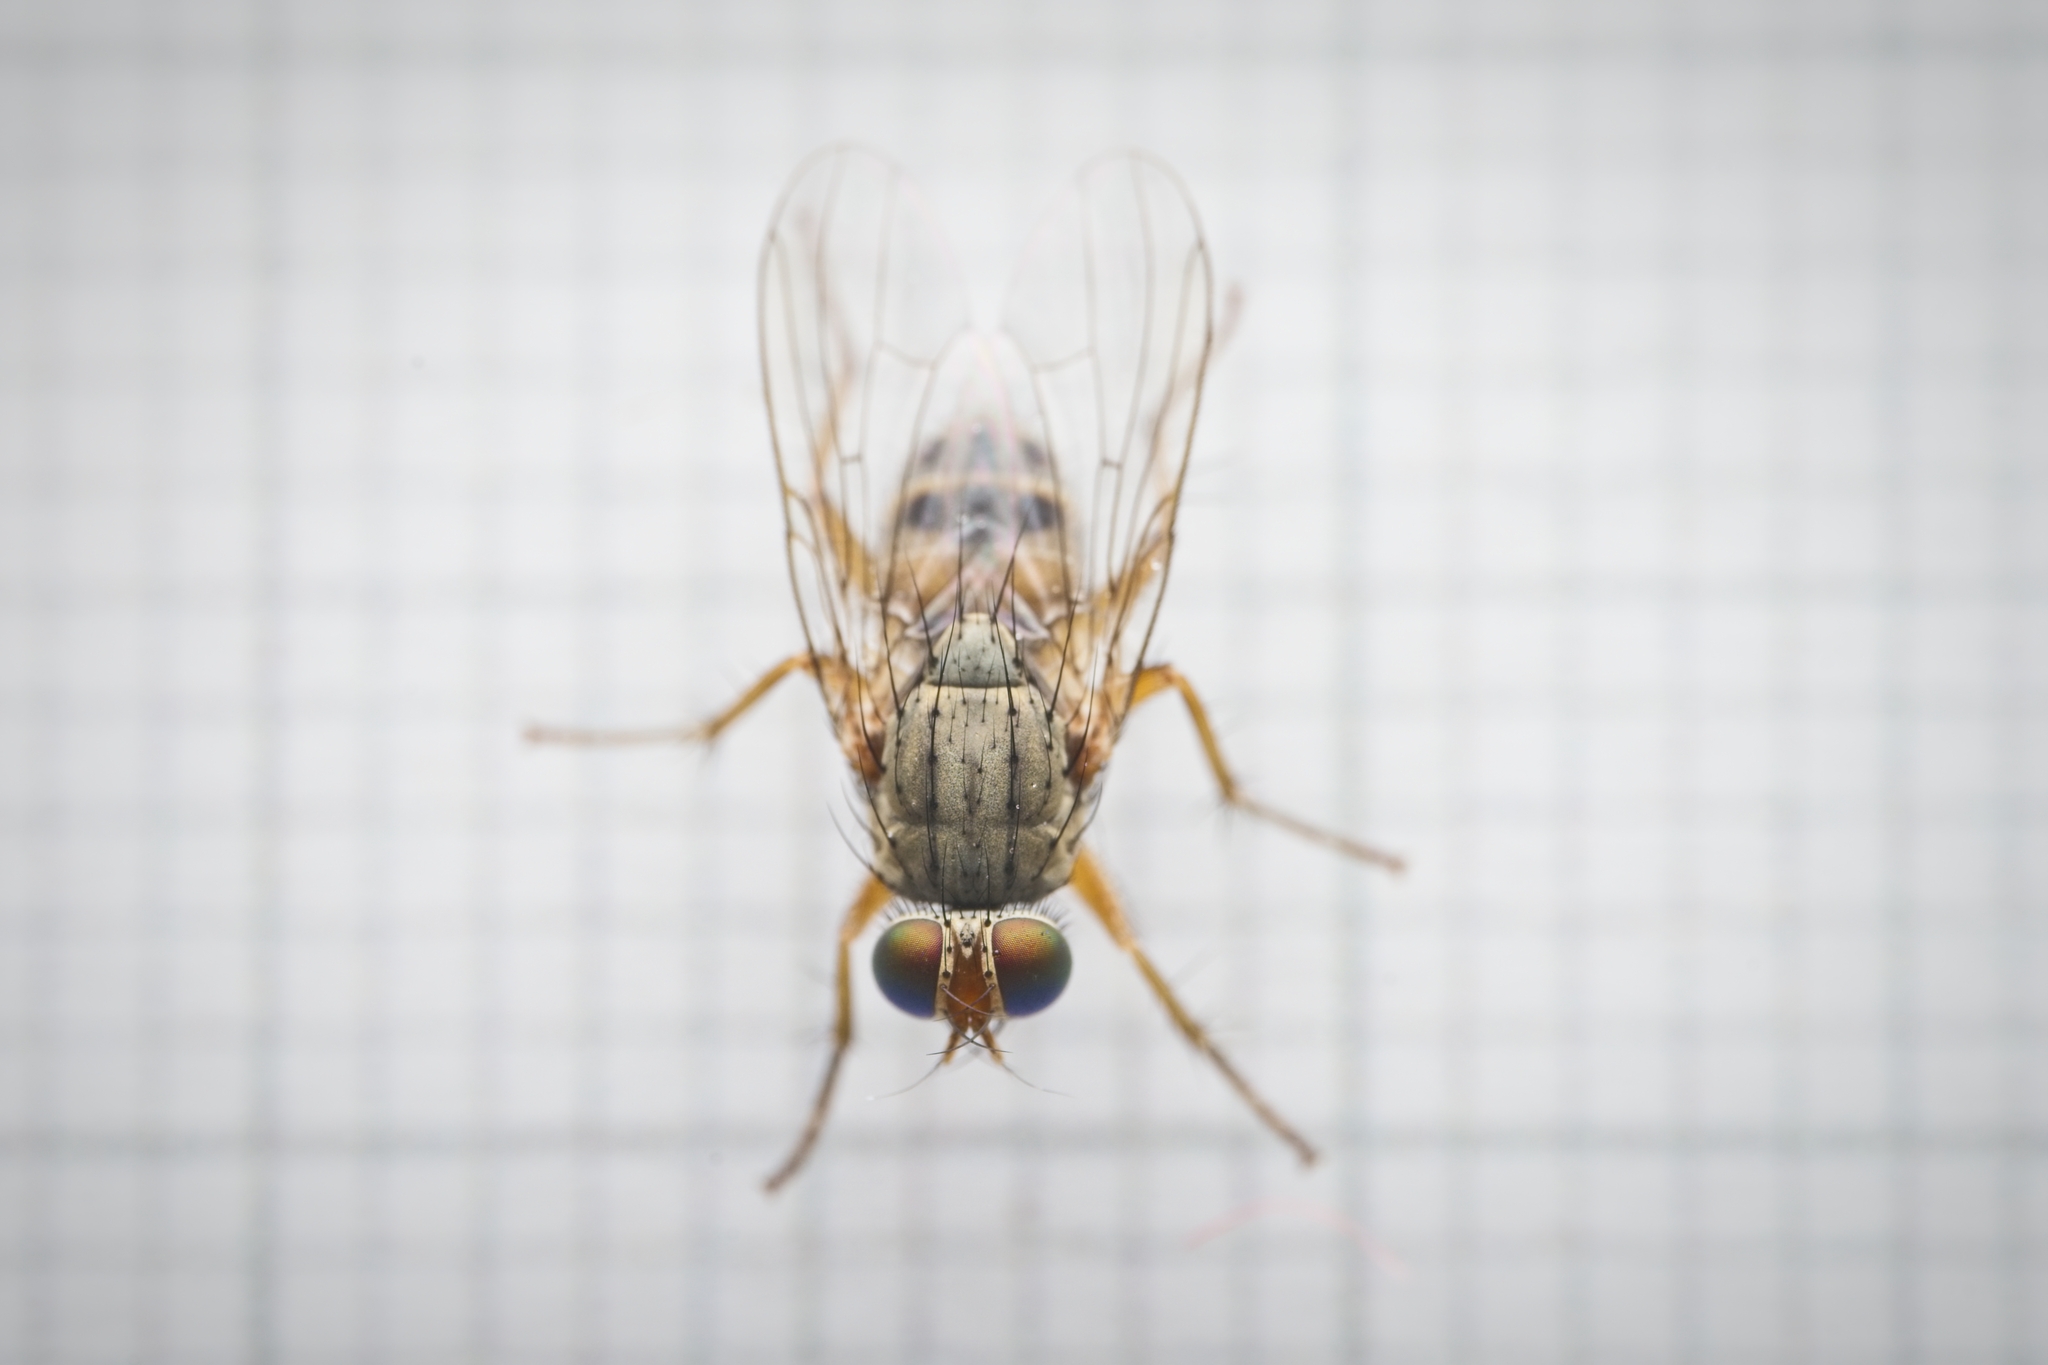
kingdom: Animalia
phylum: Arthropoda
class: Insecta
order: Diptera
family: Muscidae
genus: Pygophora
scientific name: Pygophora apicalis
